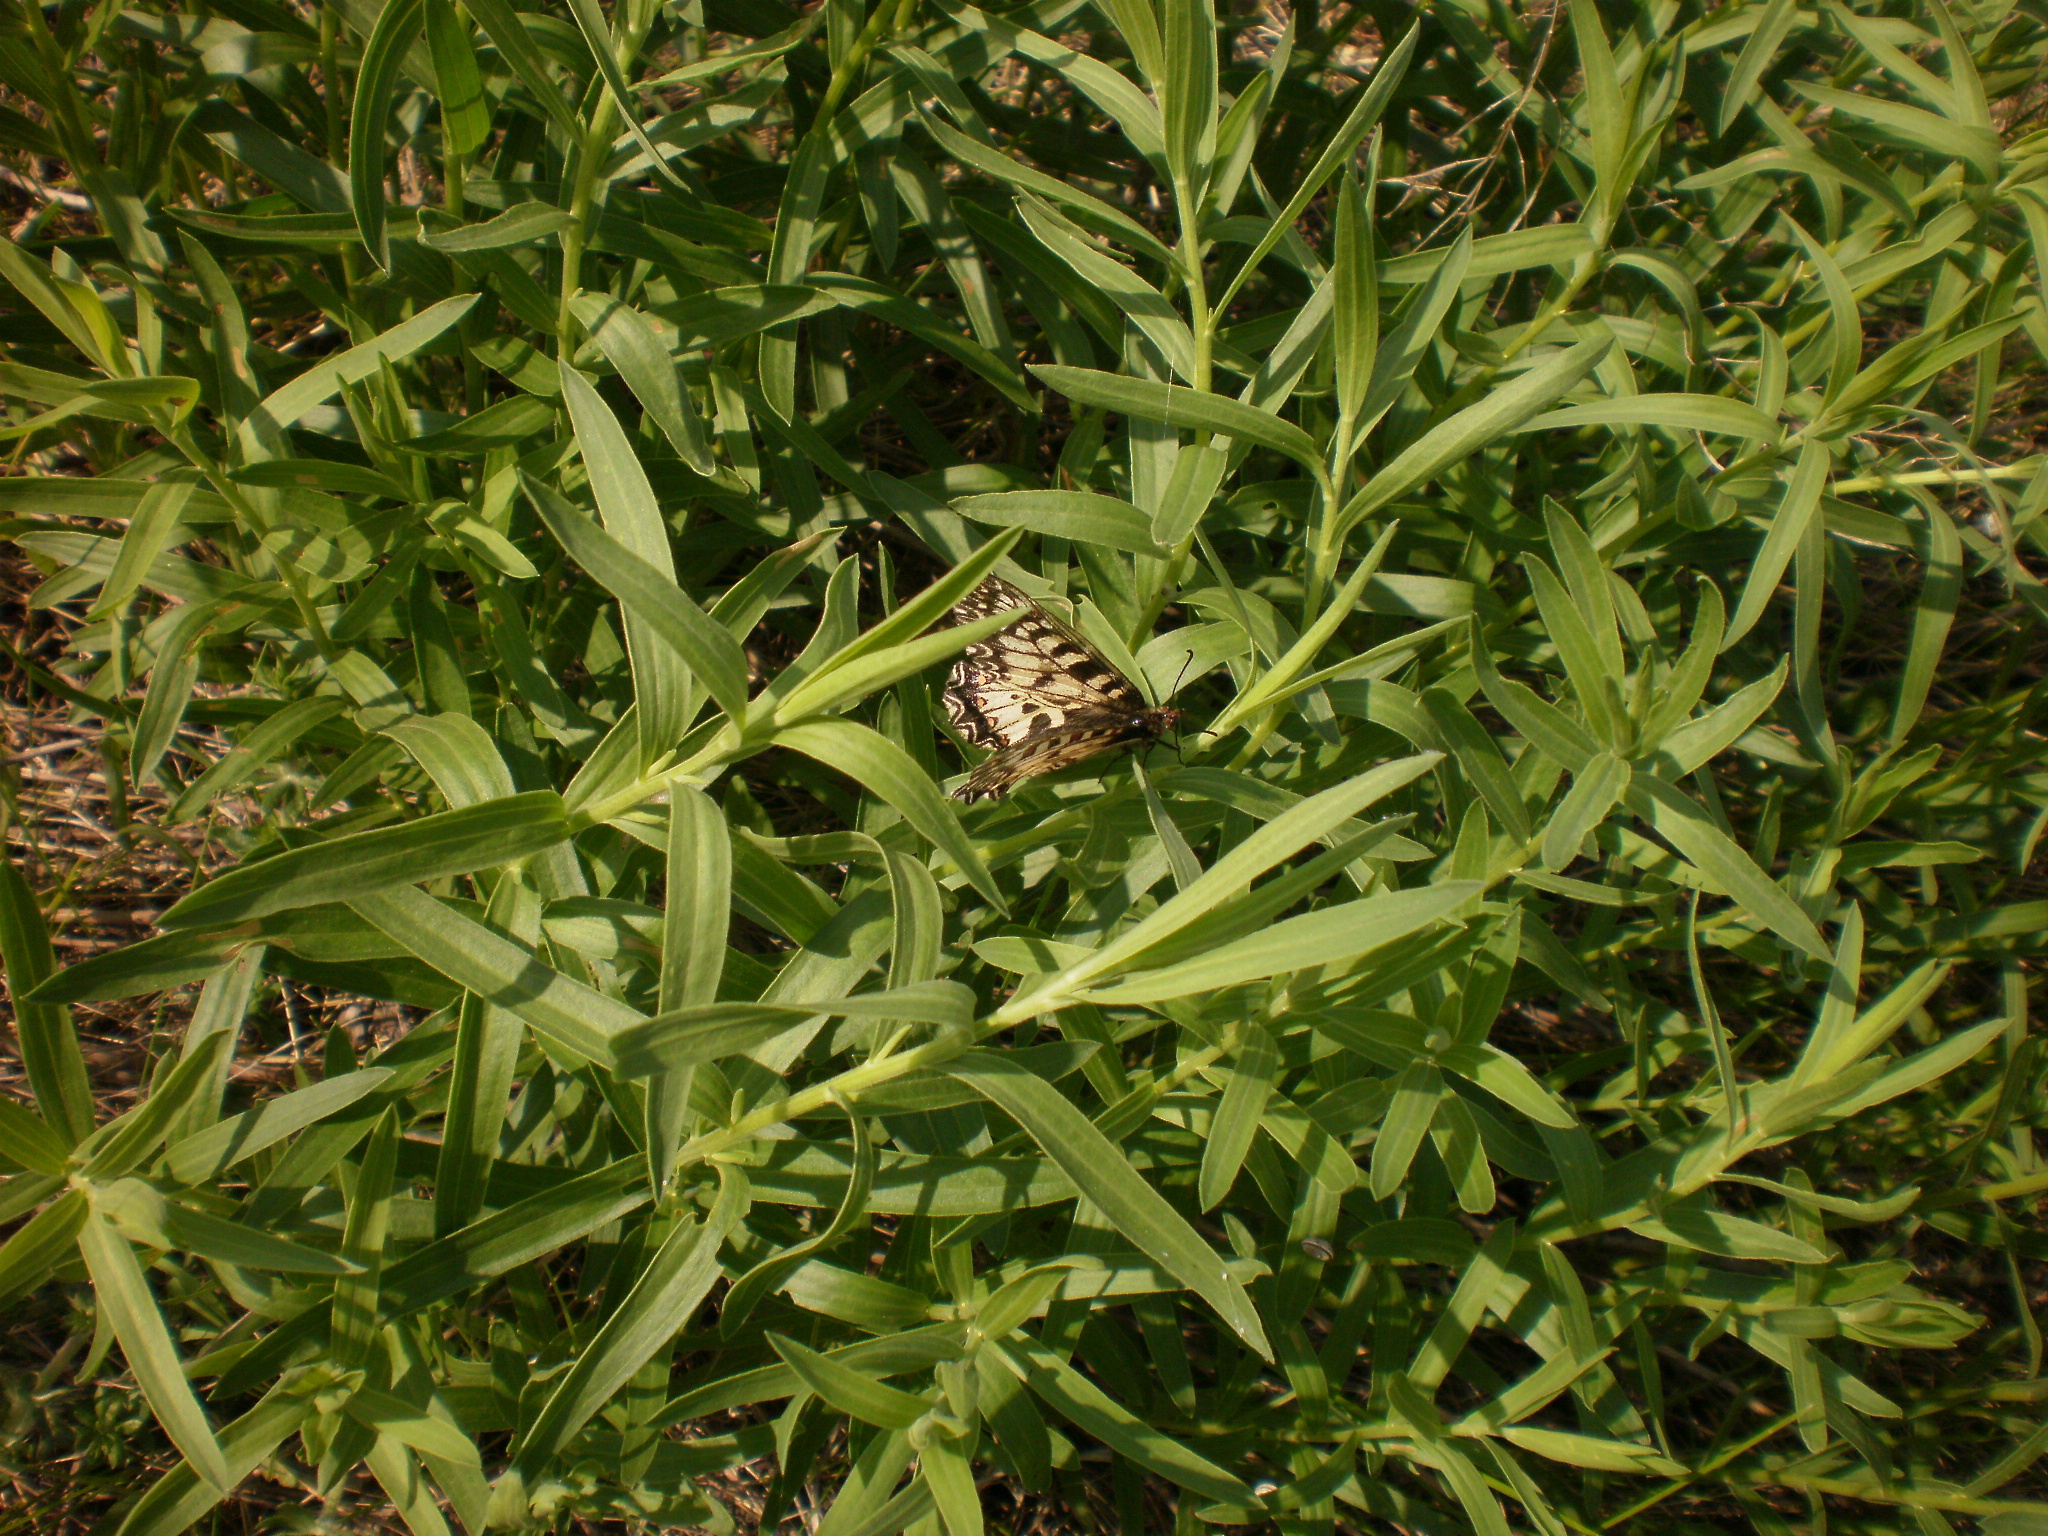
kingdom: Animalia
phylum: Arthropoda
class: Insecta
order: Lepidoptera
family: Papilionidae
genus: Zerynthia
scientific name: Zerynthia polyxena
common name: Southern festoon
